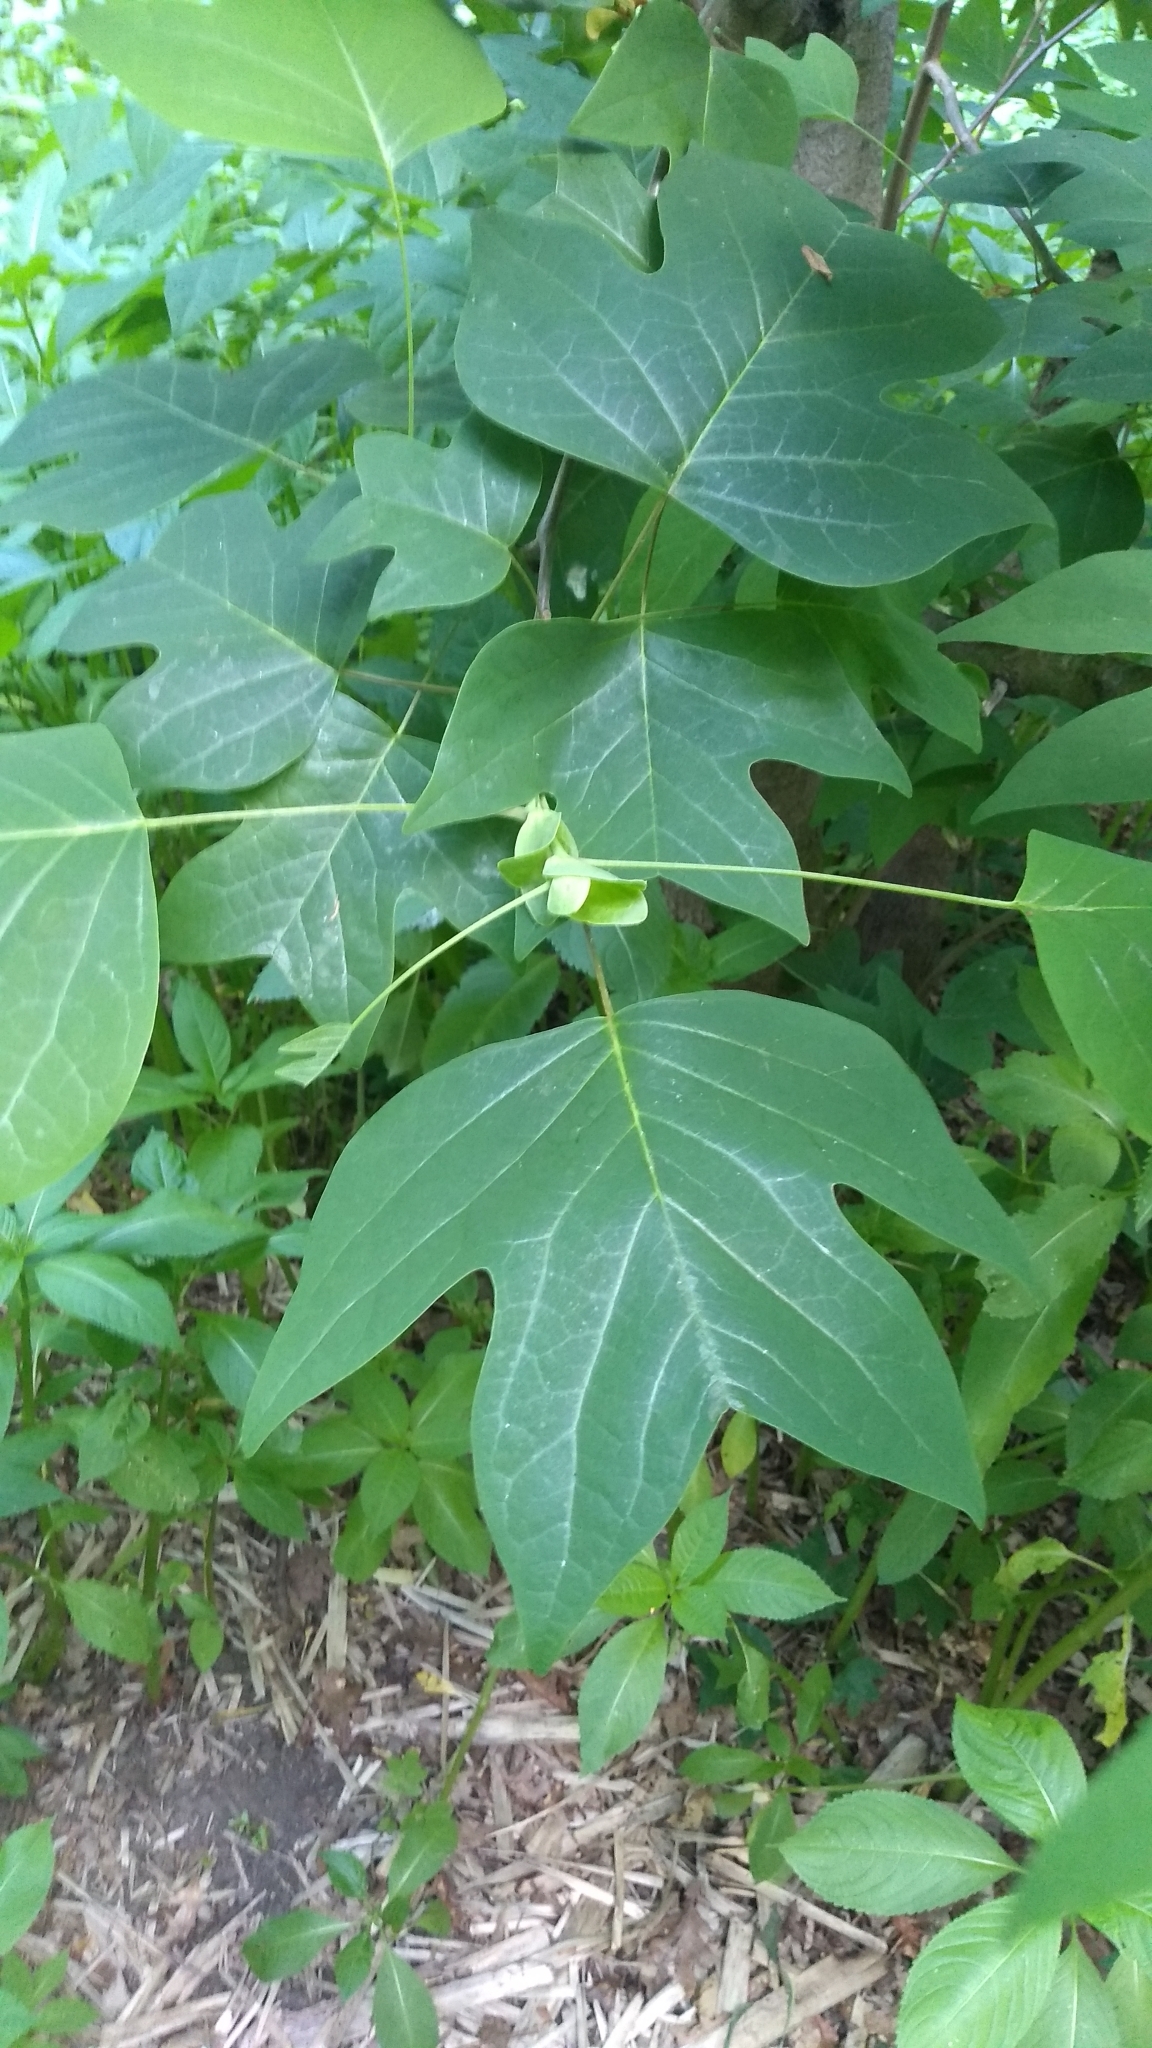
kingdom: Plantae
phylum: Tracheophyta
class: Magnoliopsida
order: Magnoliales
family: Magnoliaceae
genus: Liriodendron
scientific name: Liriodendron tulipifera
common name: Tulip tree
